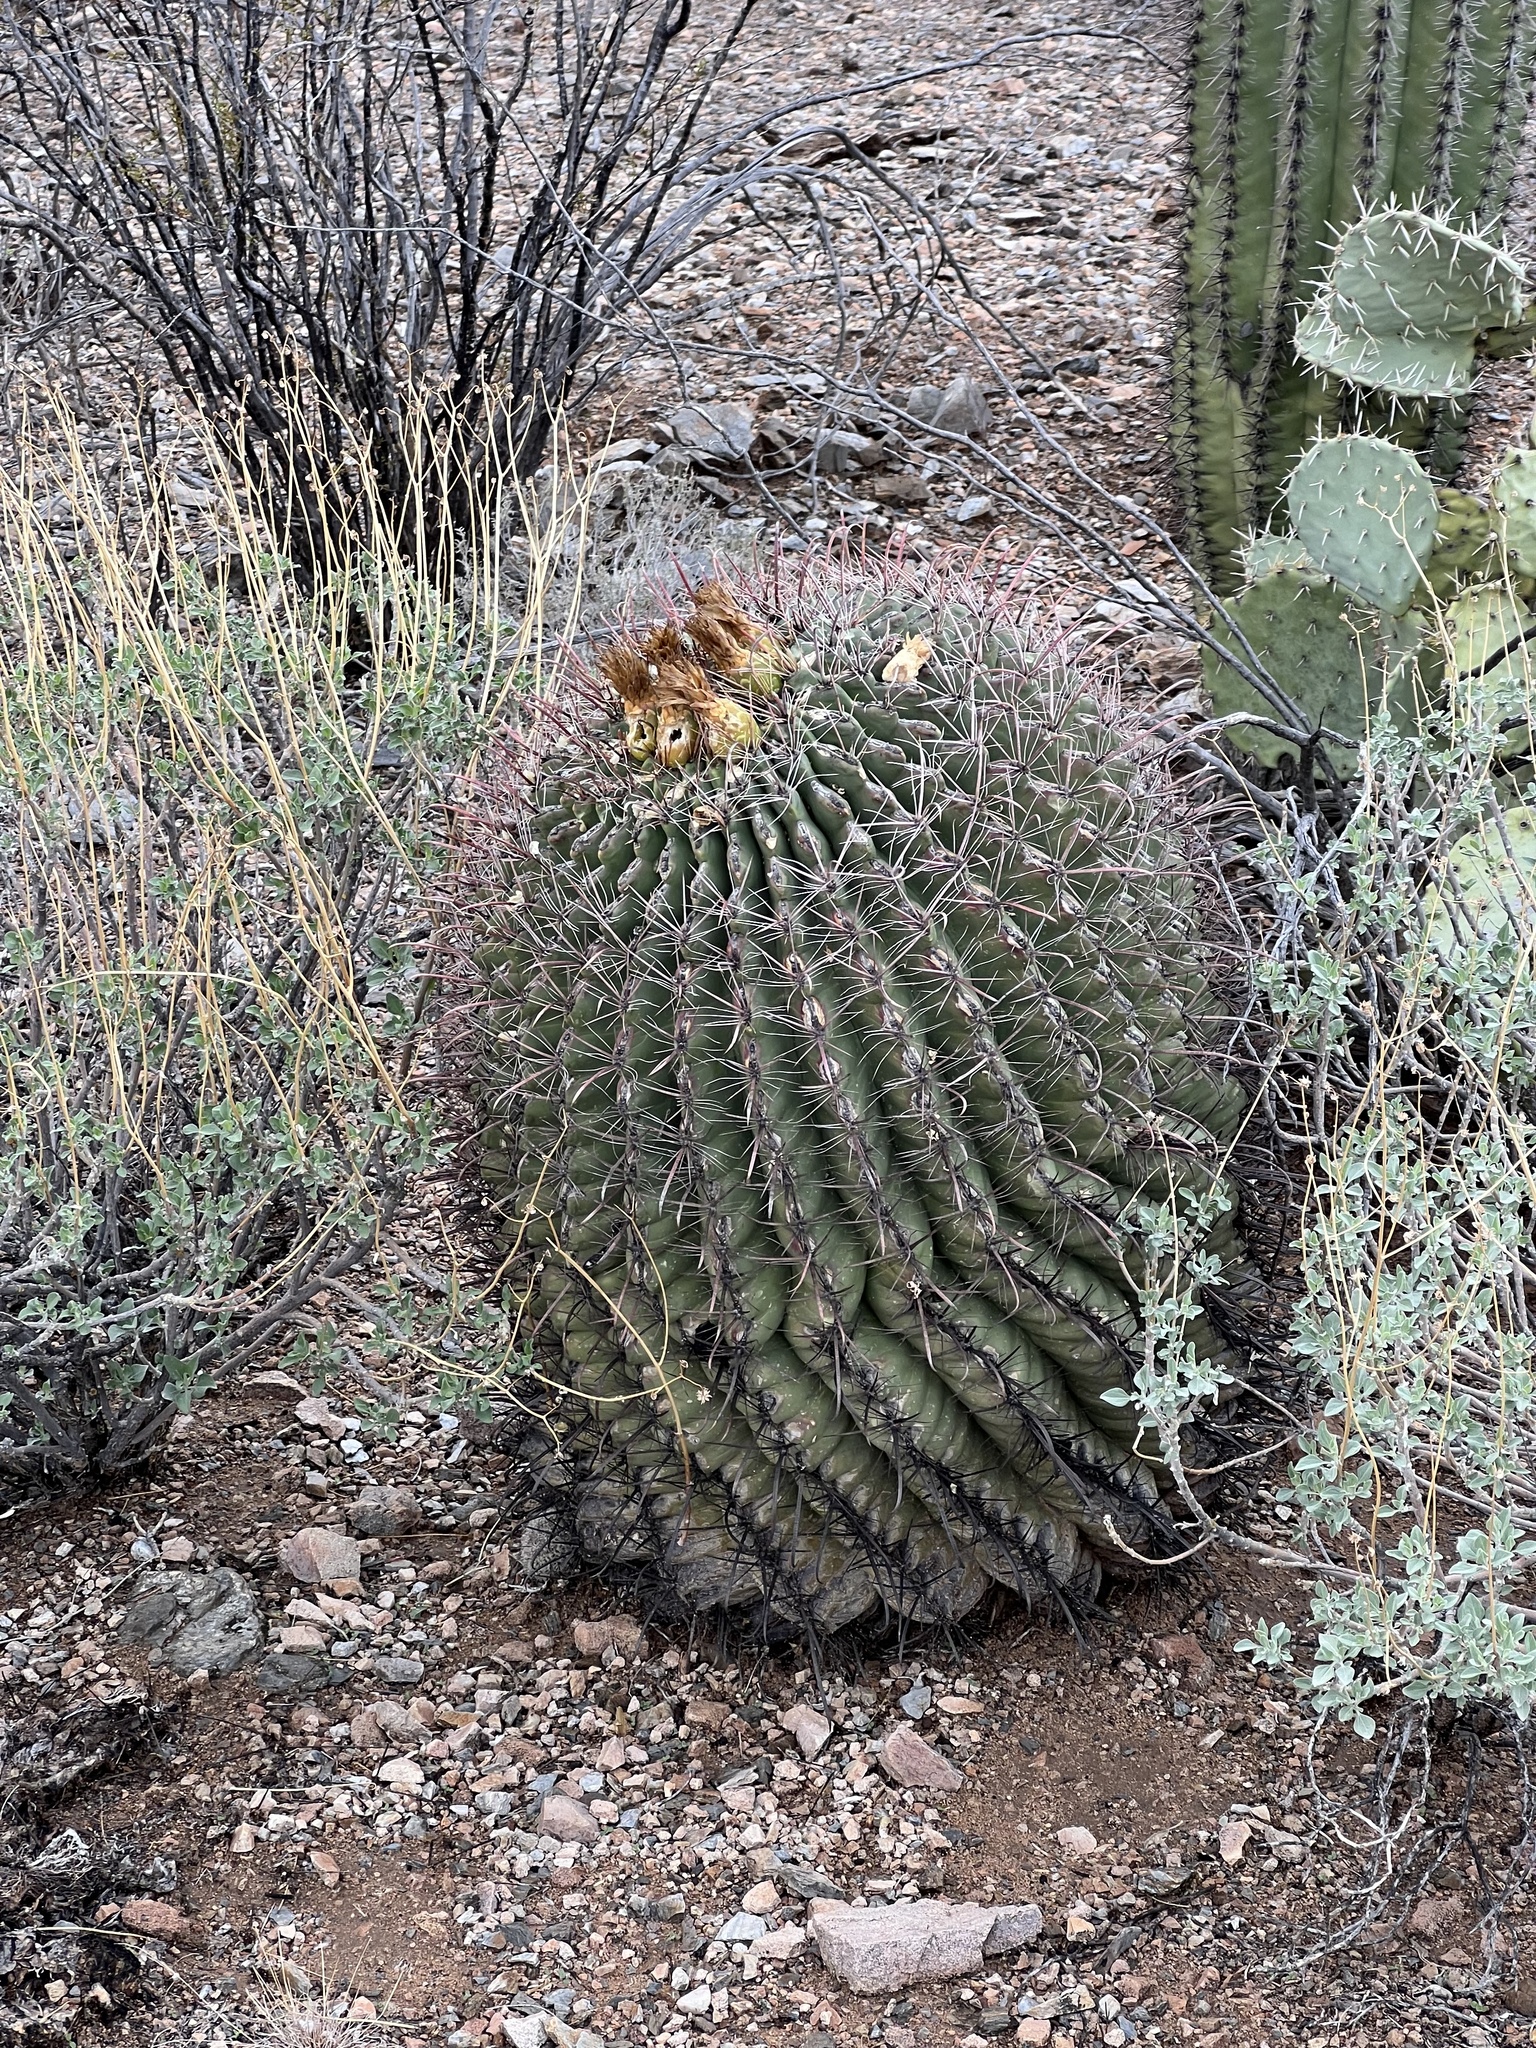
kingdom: Plantae
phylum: Tracheophyta
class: Magnoliopsida
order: Caryophyllales
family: Cactaceae
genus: Ferocactus
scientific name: Ferocactus wislizeni
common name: Candy barrel cactus
